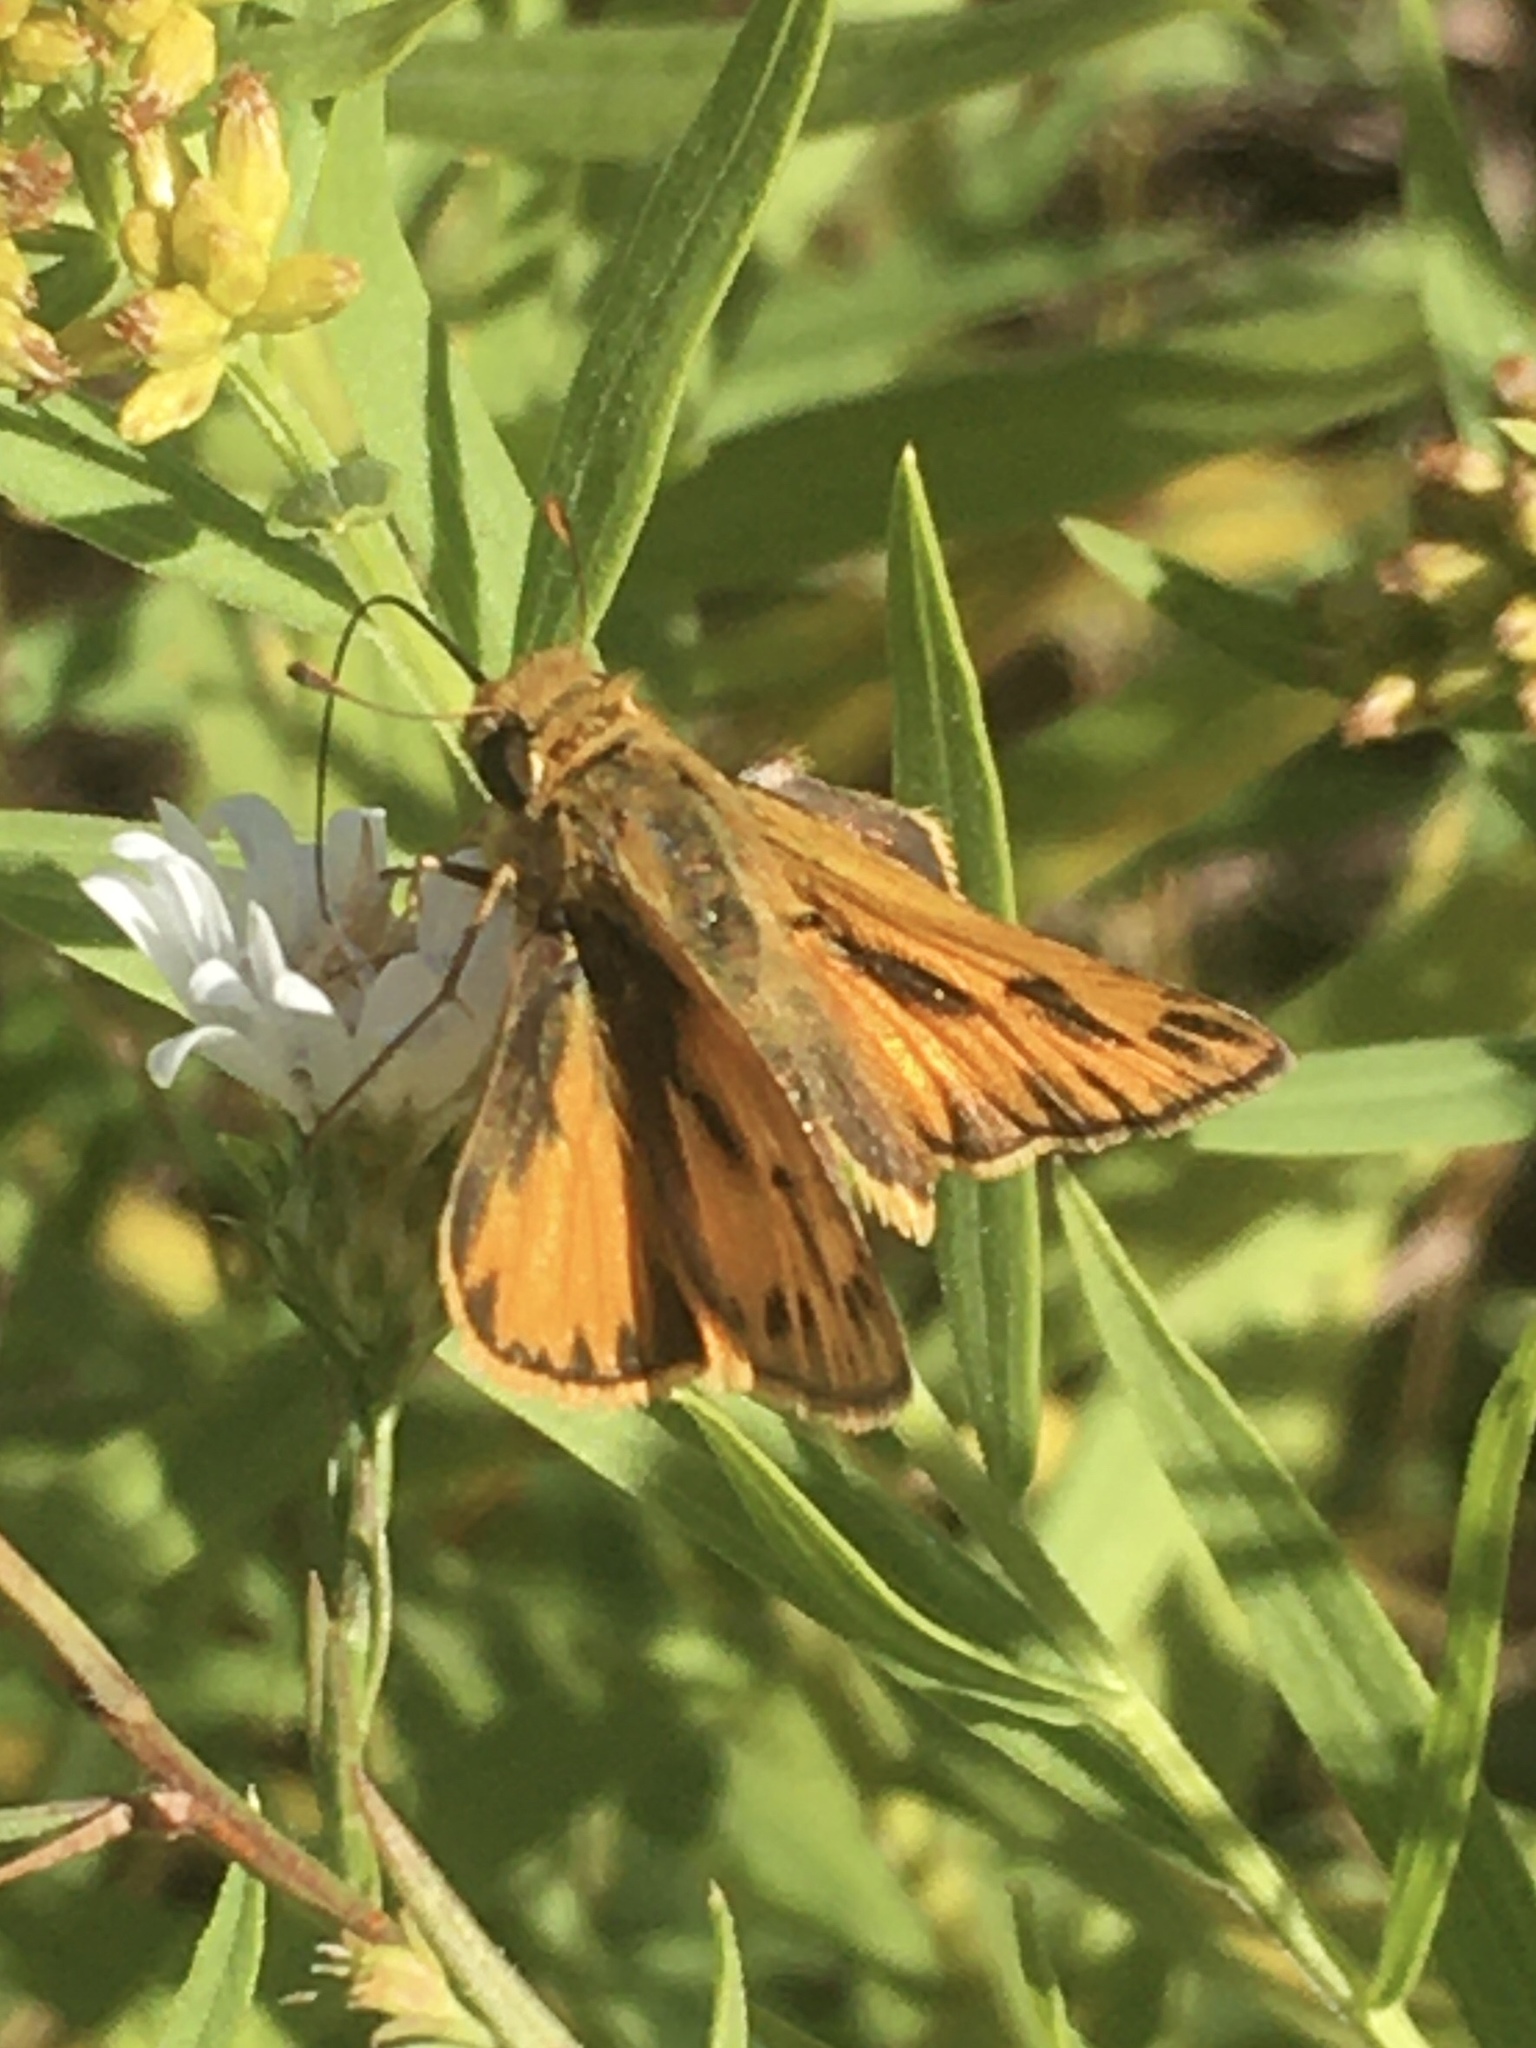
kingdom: Animalia
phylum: Arthropoda
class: Insecta
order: Lepidoptera
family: Hesperiidae
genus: Hylephila
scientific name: Hylephila phyleus
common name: Fiery skipper
